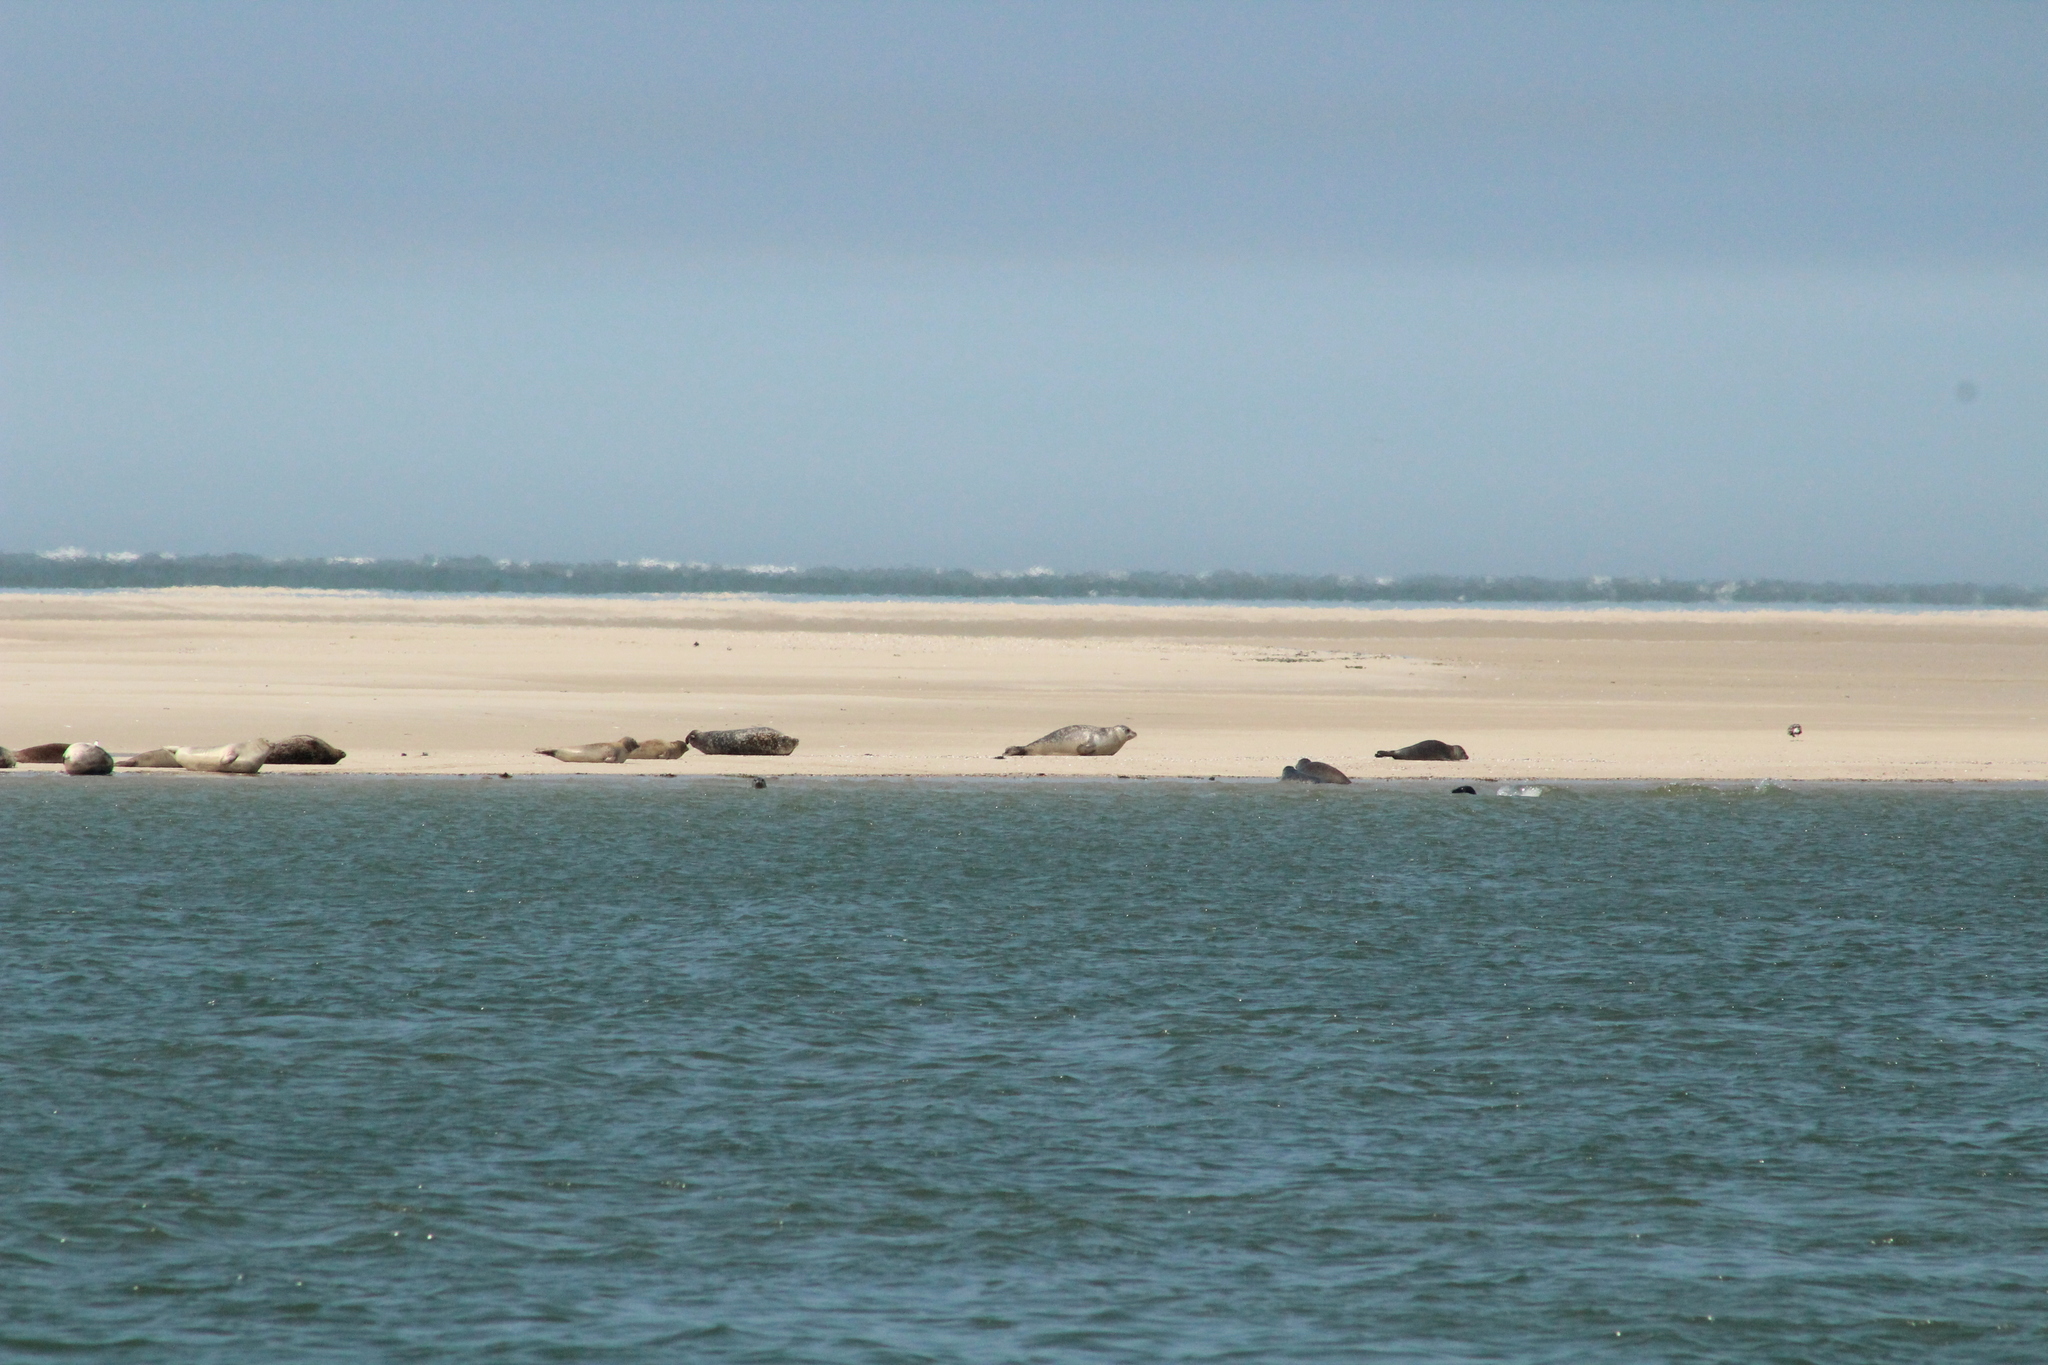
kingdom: Animalia
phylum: Chordata
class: Mammalia
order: Carnivora
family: Phocidae
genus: Phoca
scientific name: Phoca vitulina
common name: Harbor seal
